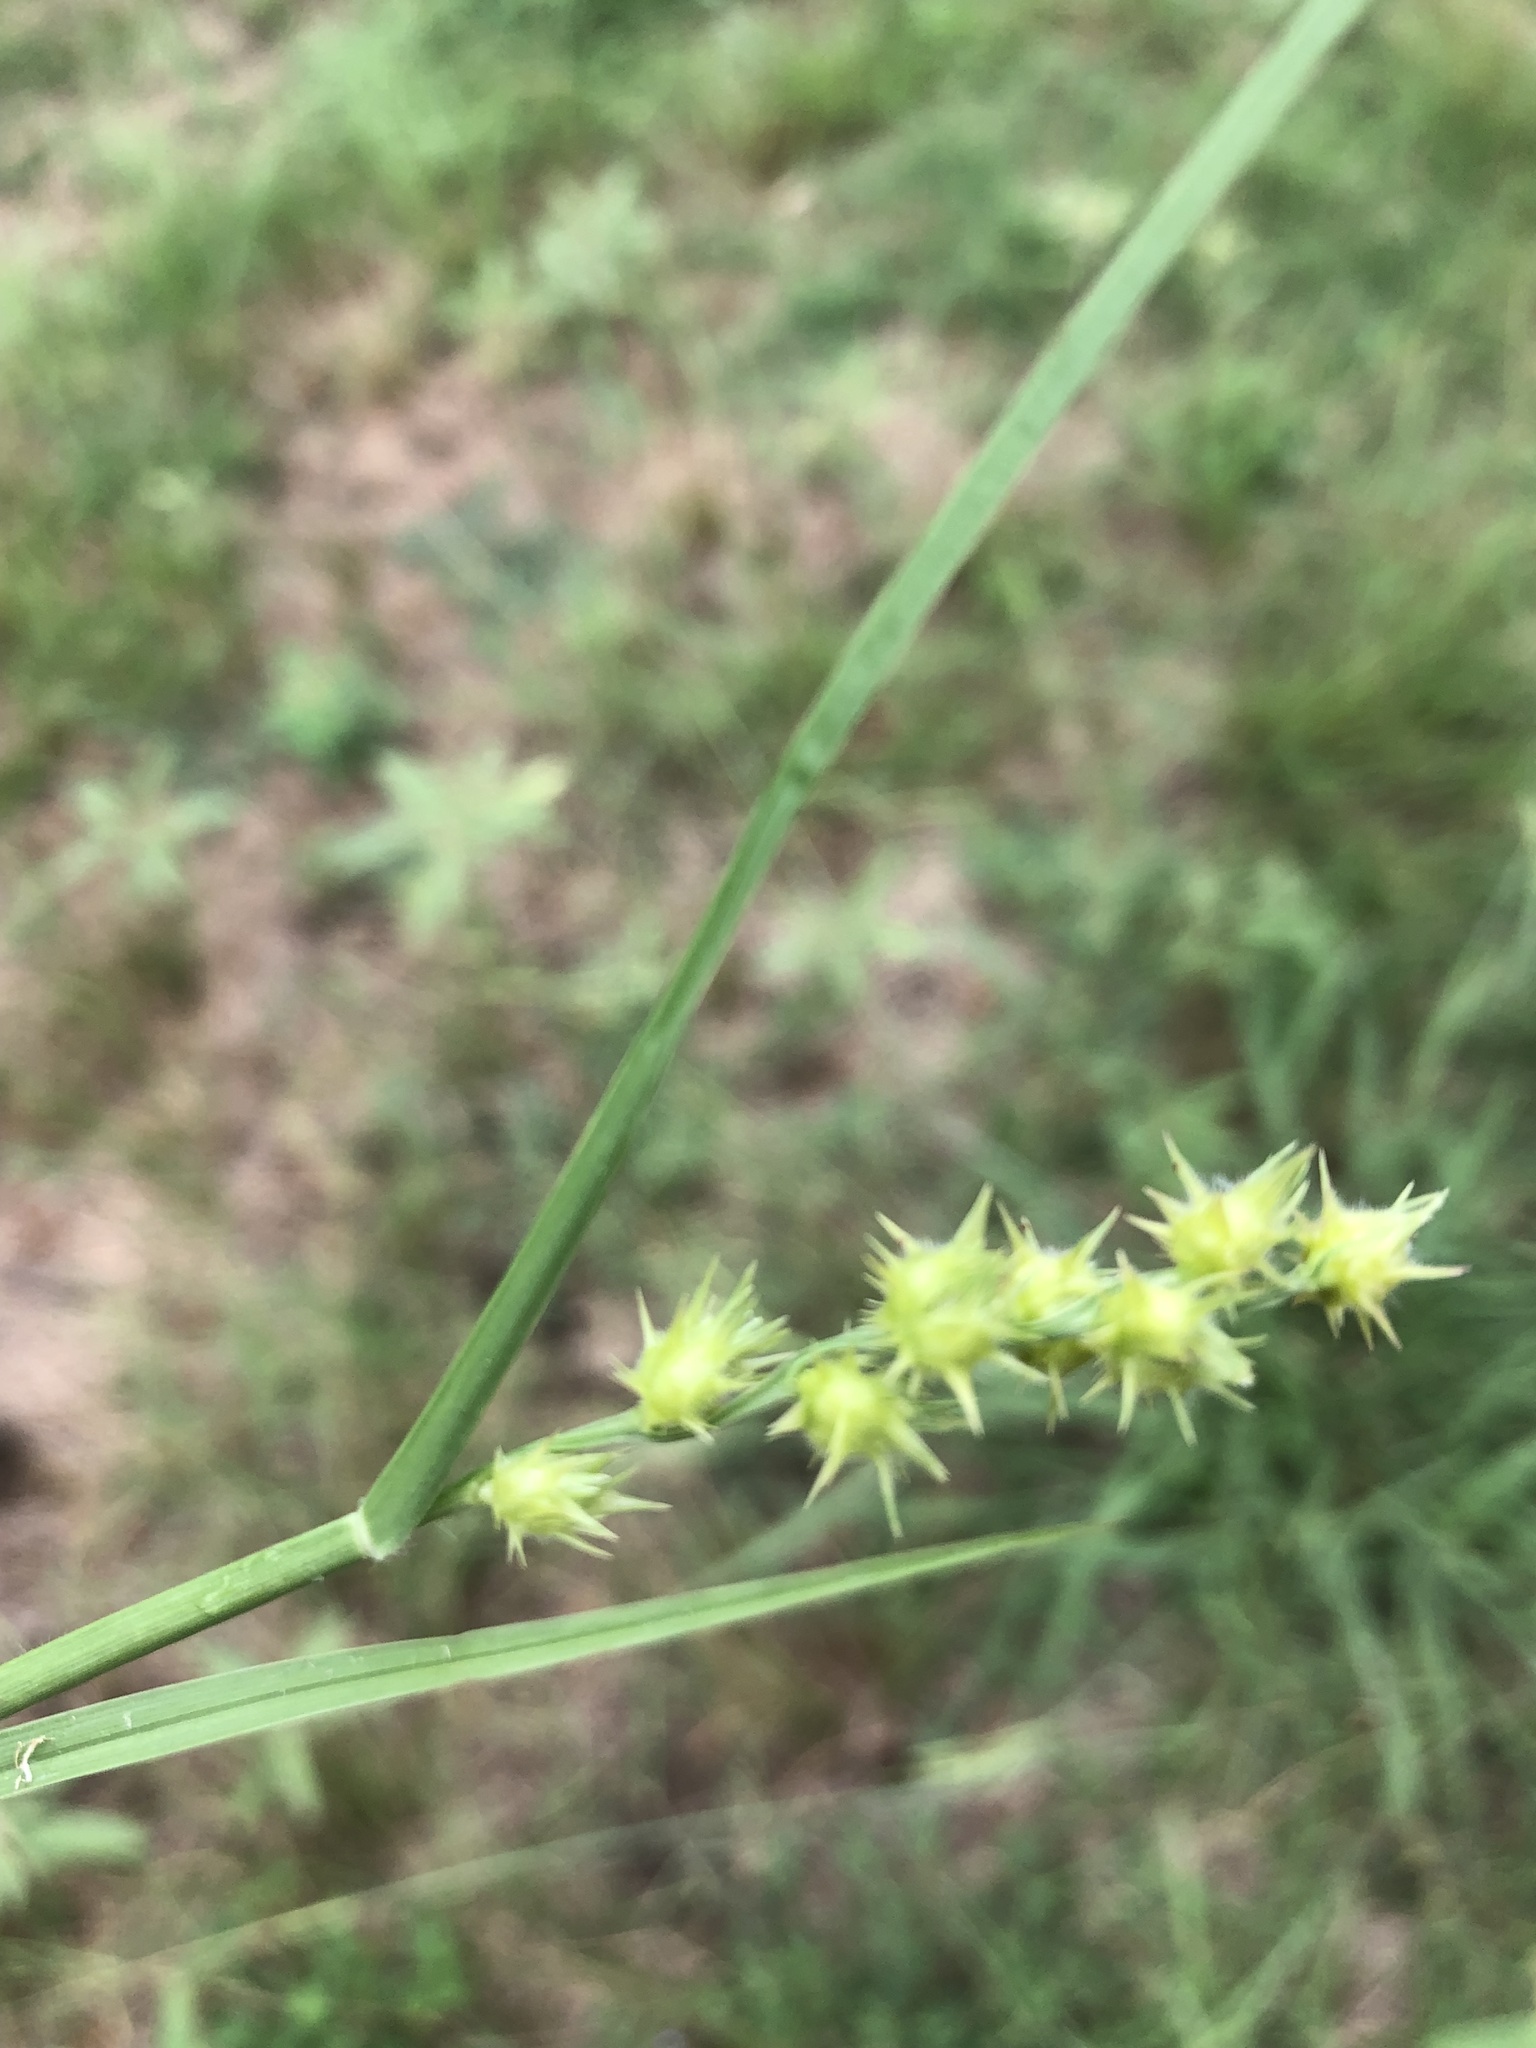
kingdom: Plantae
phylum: Tracheophyta
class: Liliopsida
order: Poales
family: Poaceae
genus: Cenchrus
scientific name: Cenchrus spinifex
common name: Coast sandbur
